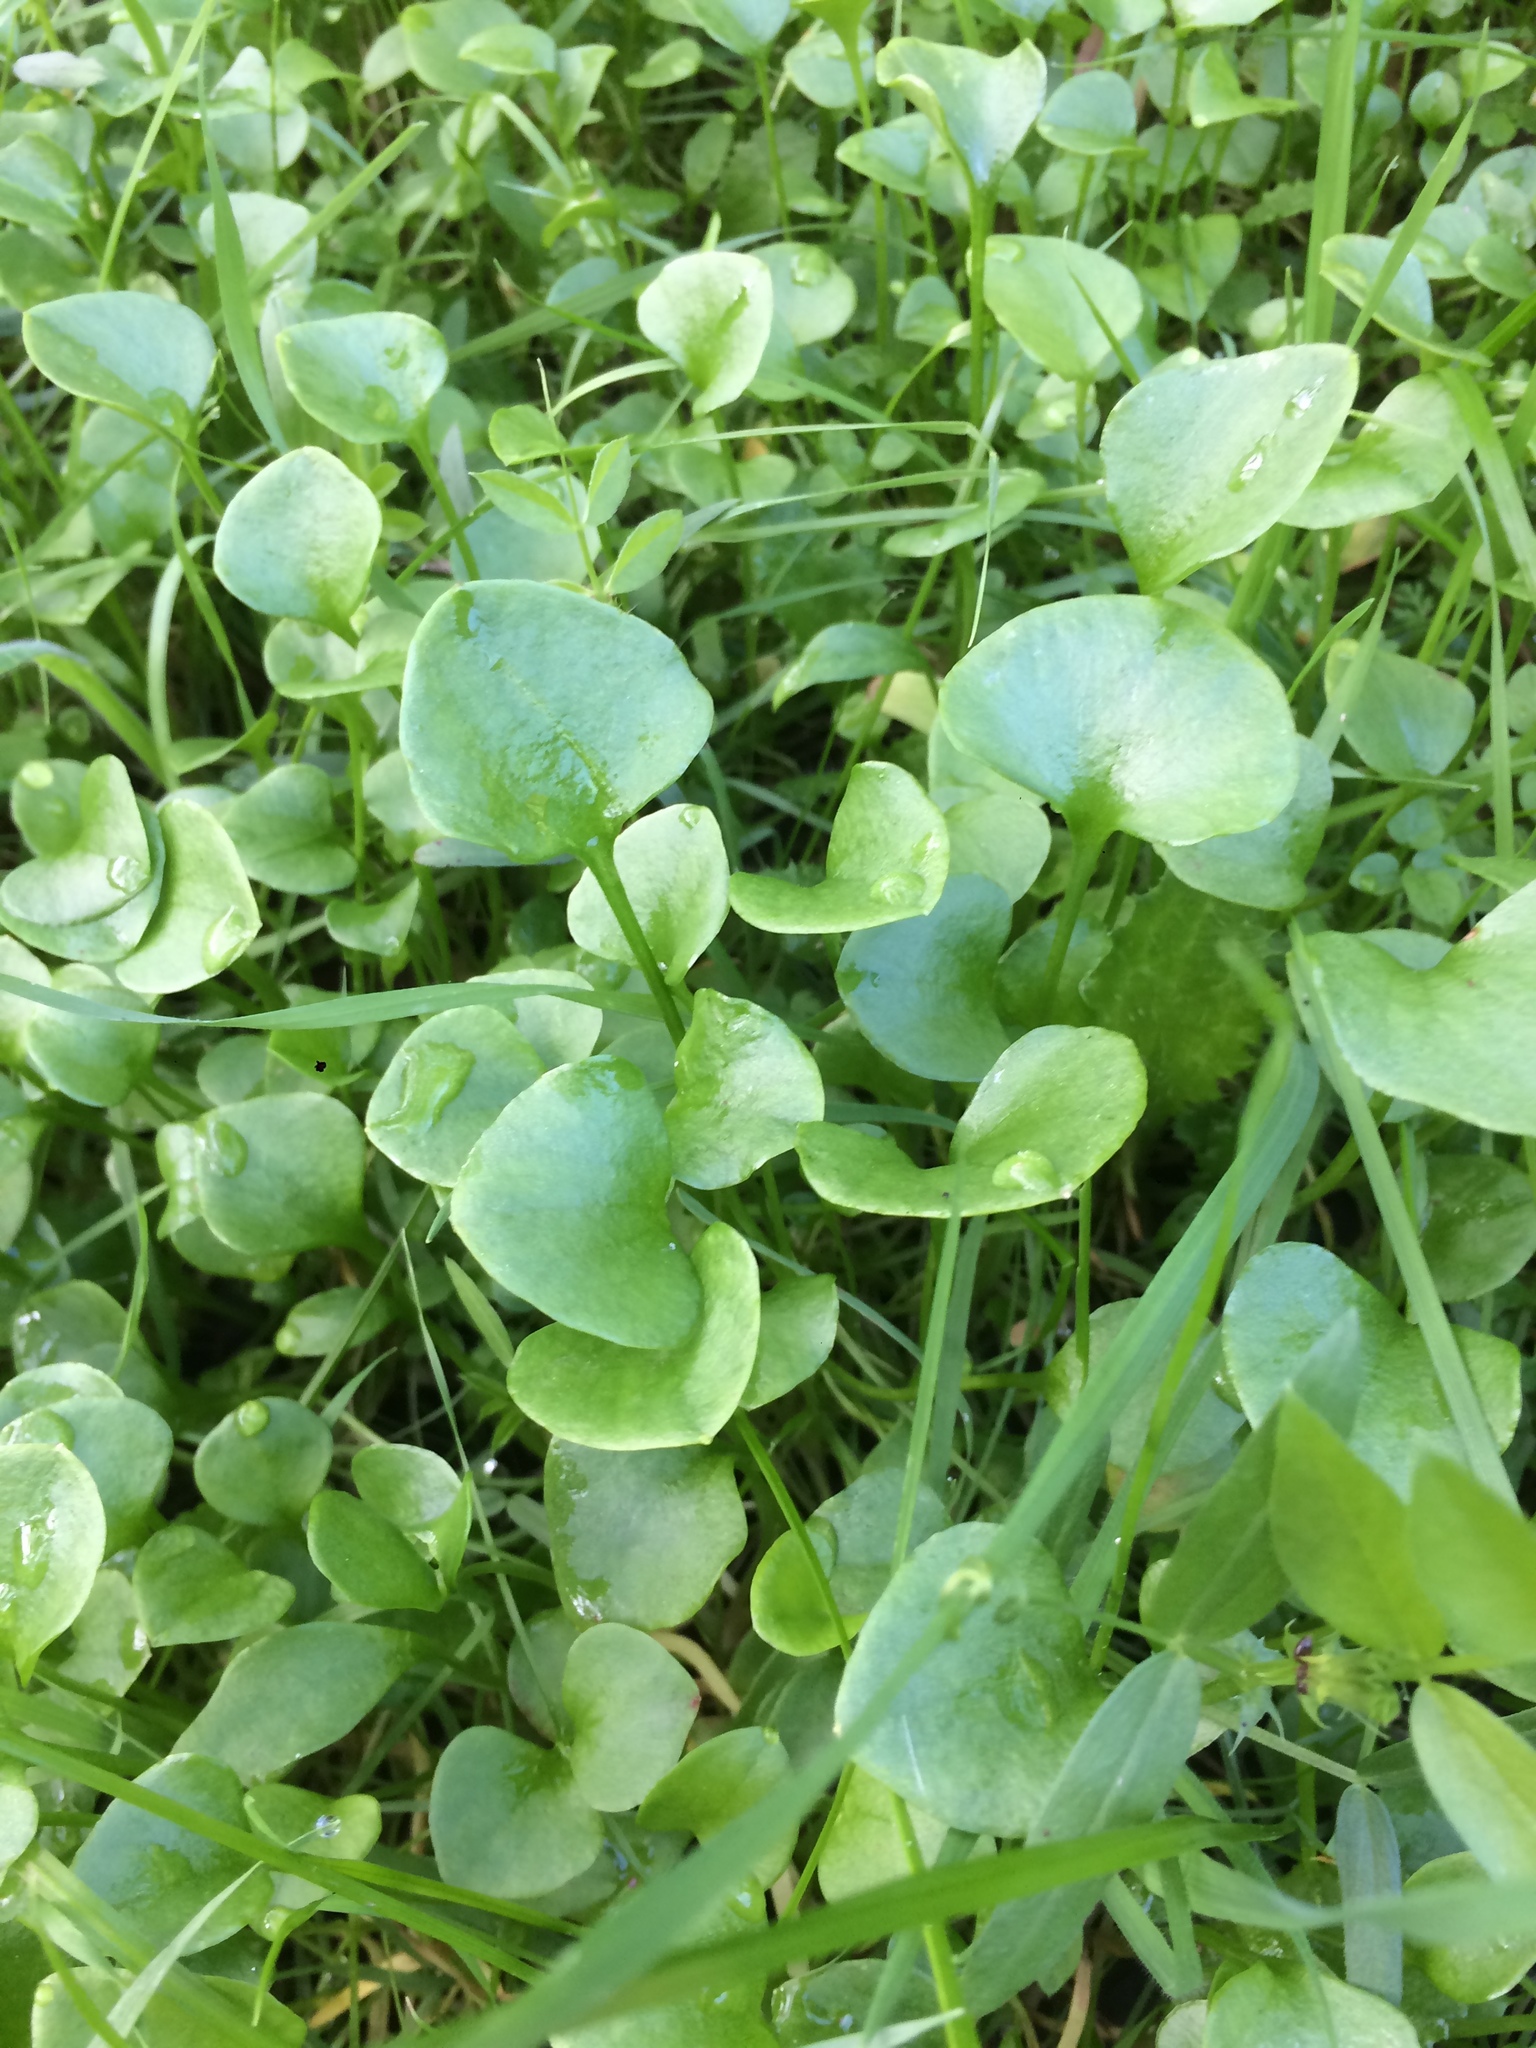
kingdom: Plantae
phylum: Tracheophyta
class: Magnoliopsida
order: Caryophyllales
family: Montiaceae
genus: Claytonia
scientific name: Claytonia perfoliata
